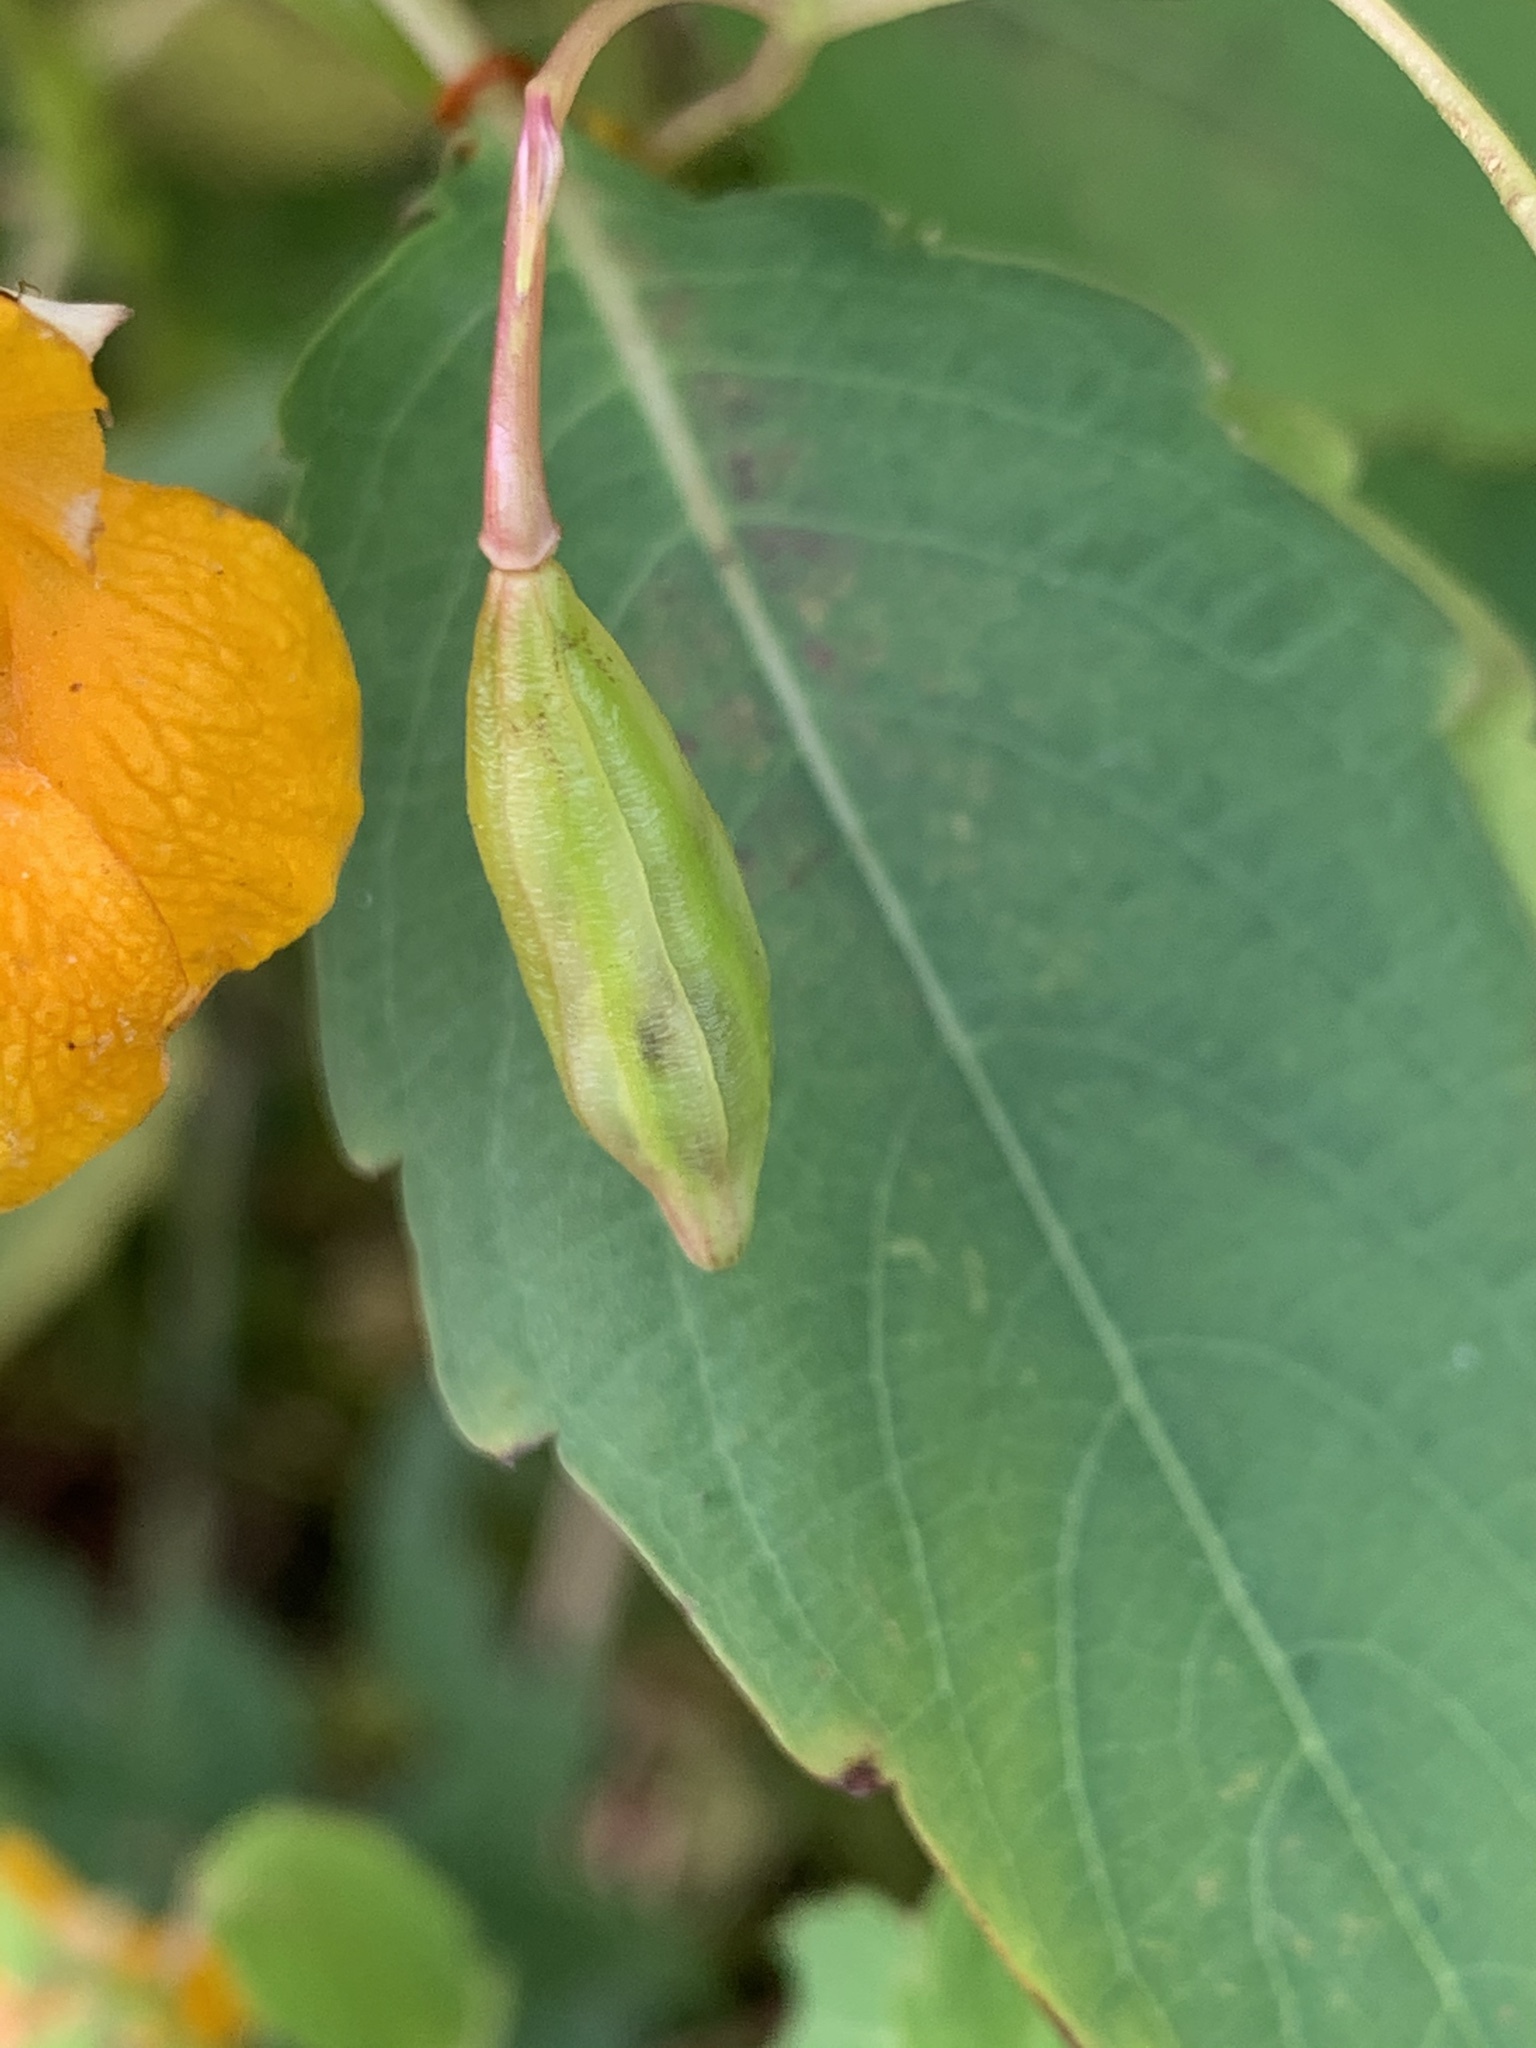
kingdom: Plantae
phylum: Tracheophyta
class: Magnoliopsida
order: Ericales
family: Balsaminaceae
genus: Impatiens
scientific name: Impatiens capensis
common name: Orange balsam
